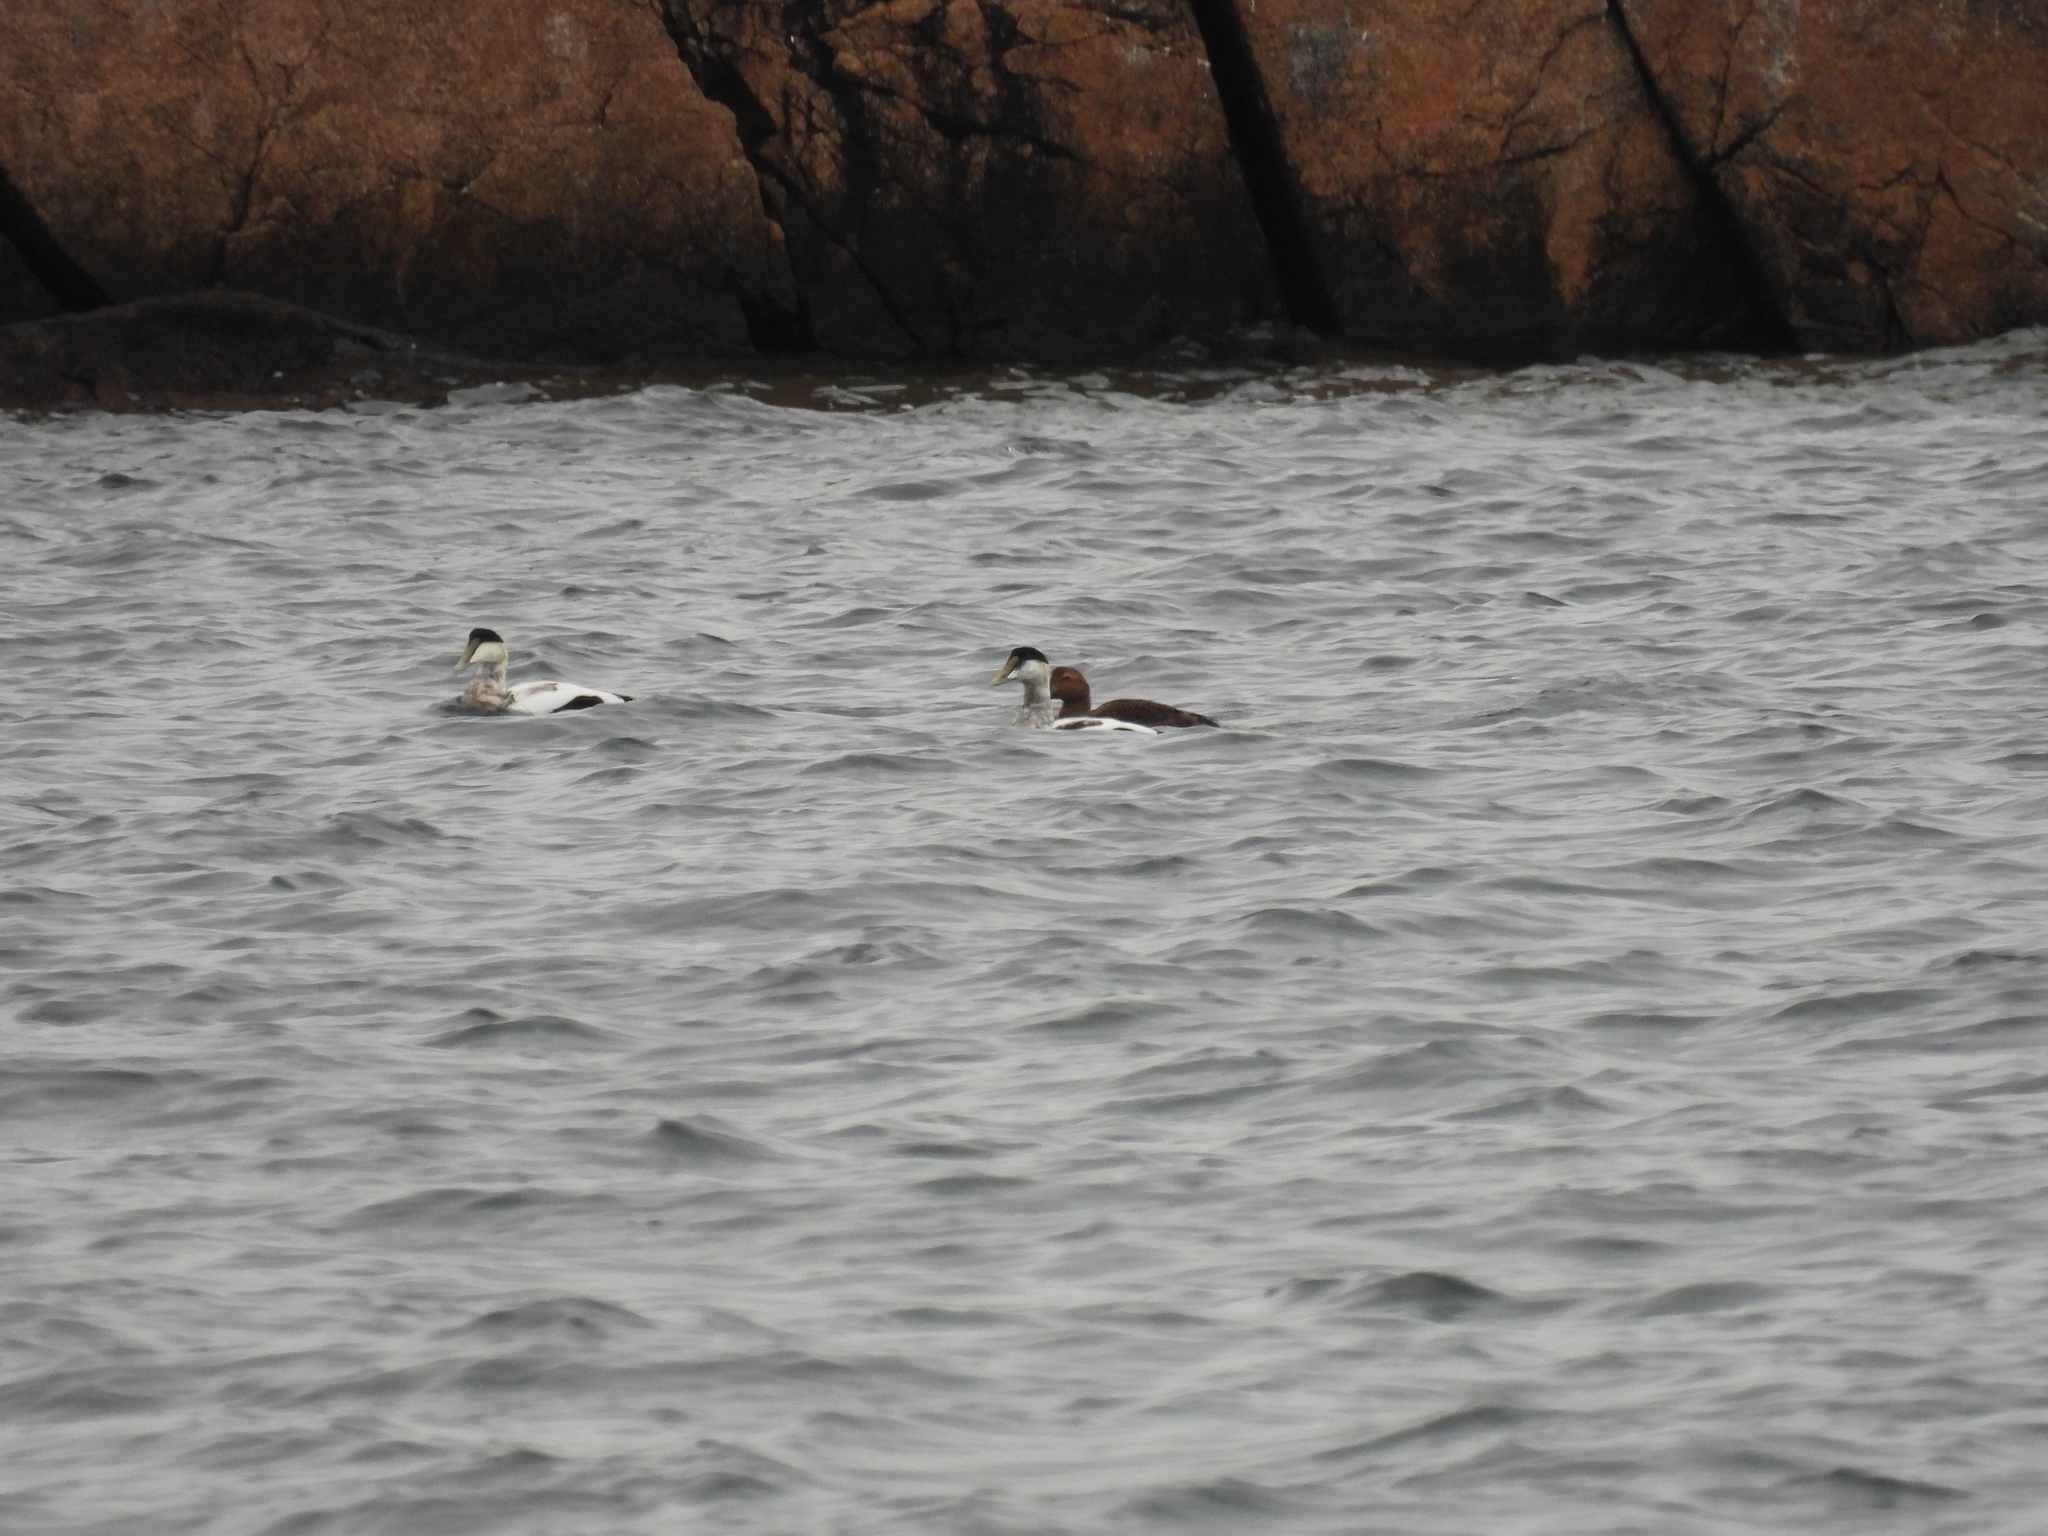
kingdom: Animalia
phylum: Chordata
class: Aves
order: Anseriformes
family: Anatidae
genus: Somateria
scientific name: Somateria mollissima
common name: Common eider
